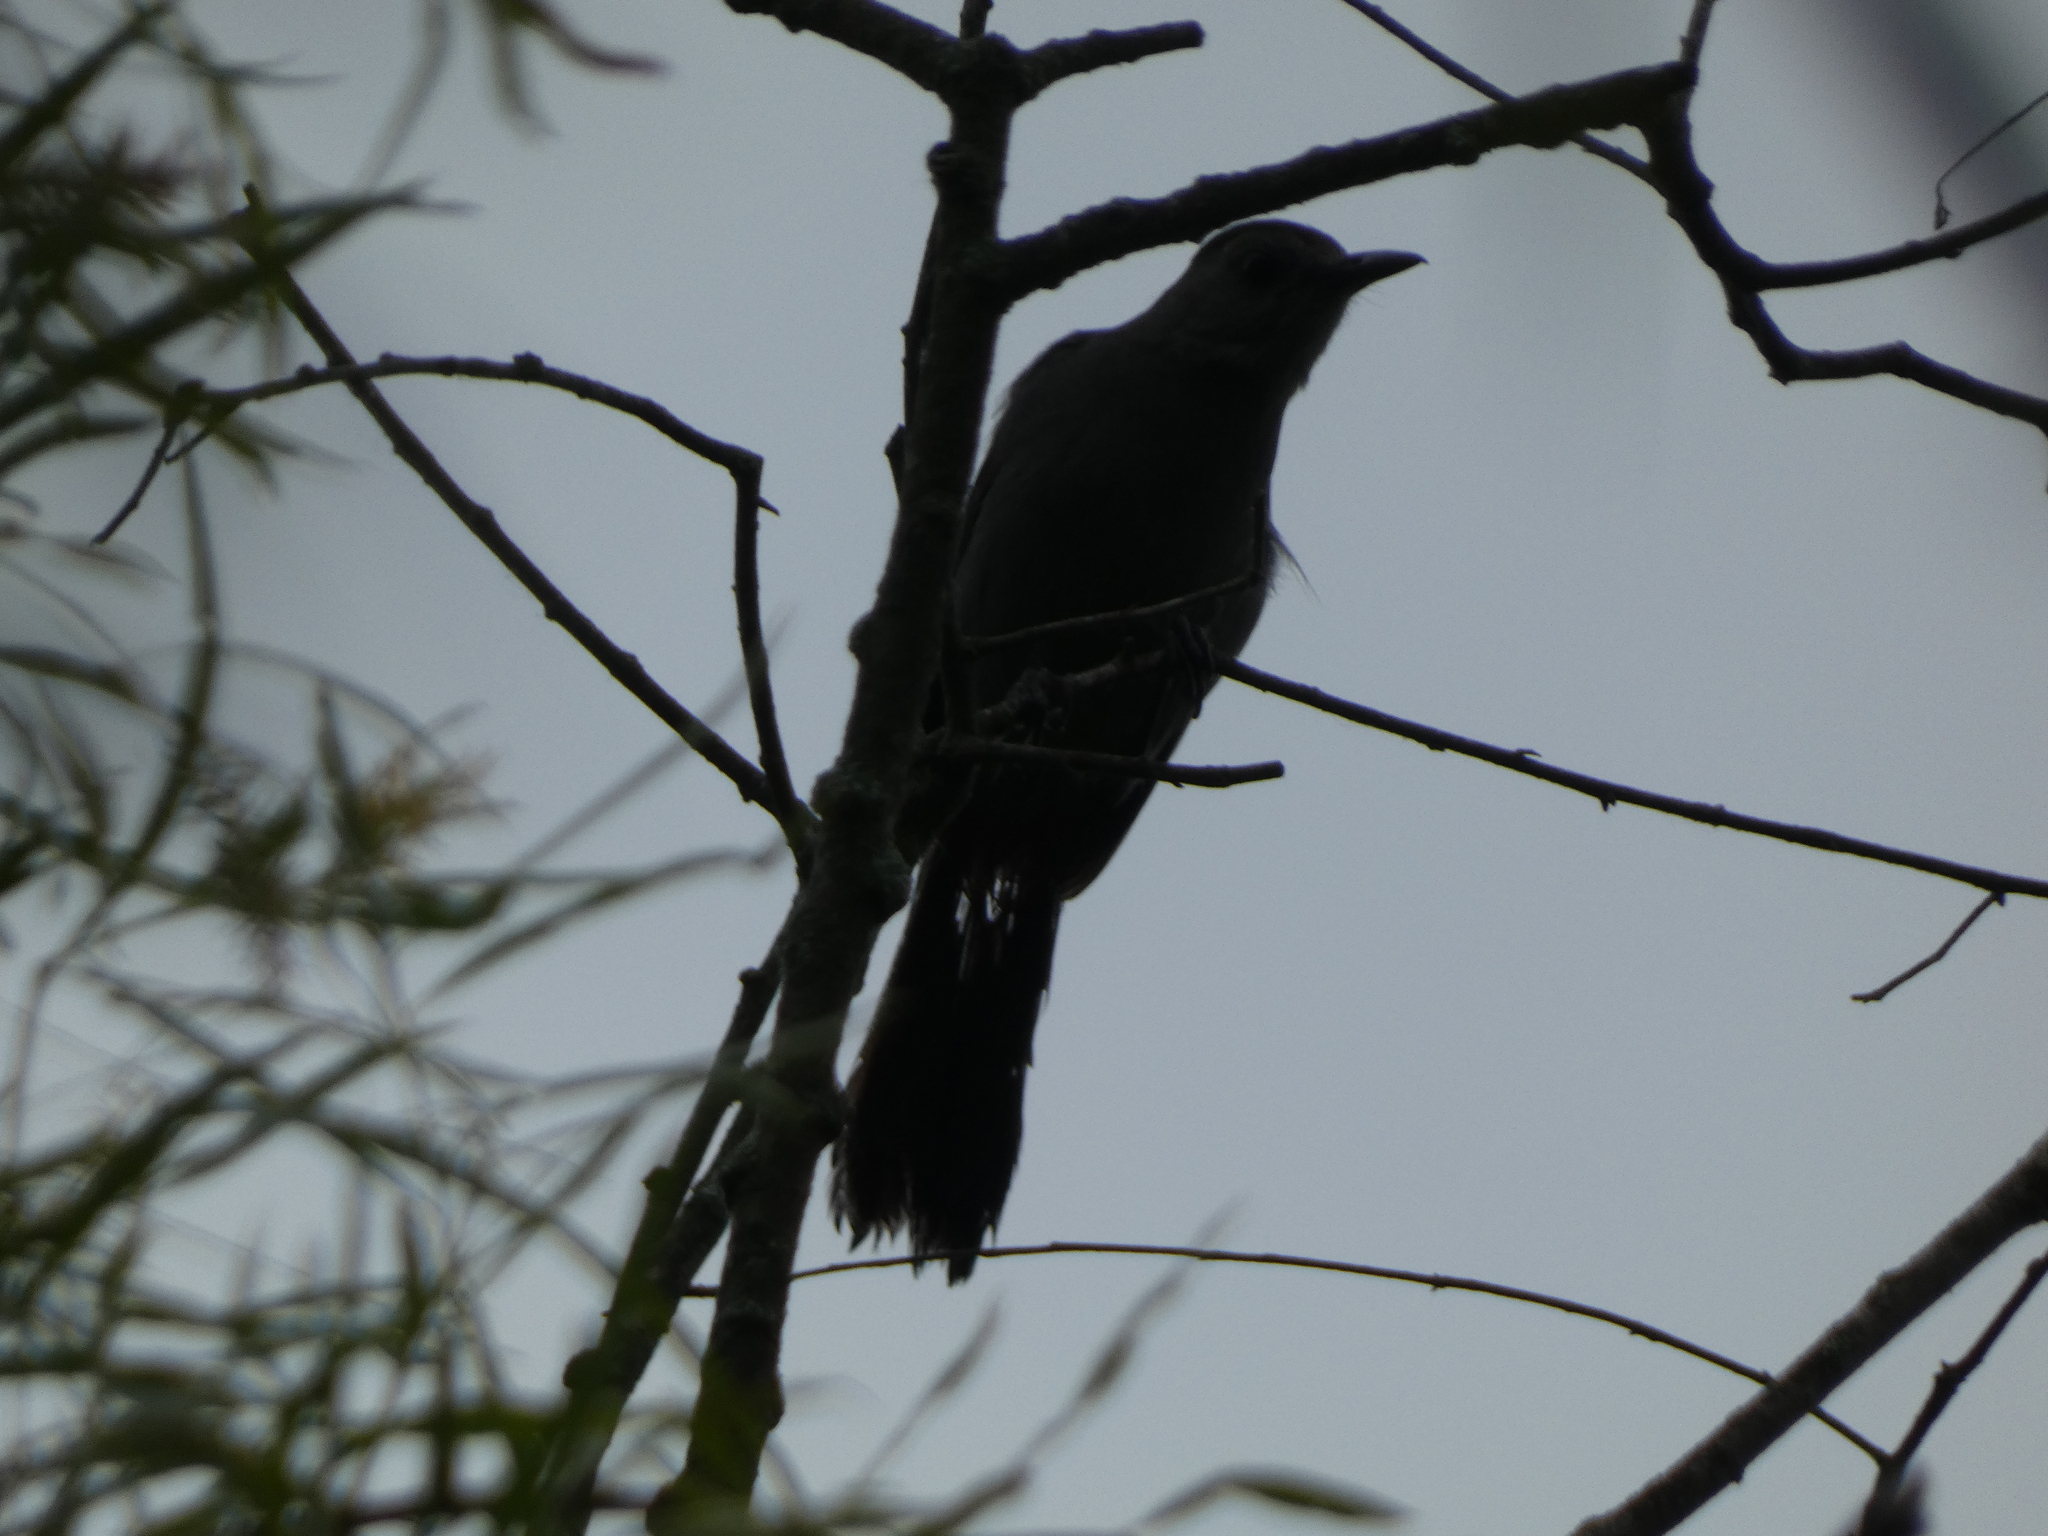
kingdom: Animalia
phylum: Chordata
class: Aves
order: Passeriformes
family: Mimidae
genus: Dumetella
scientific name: Dumetella carolinensis
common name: Gray catbird
